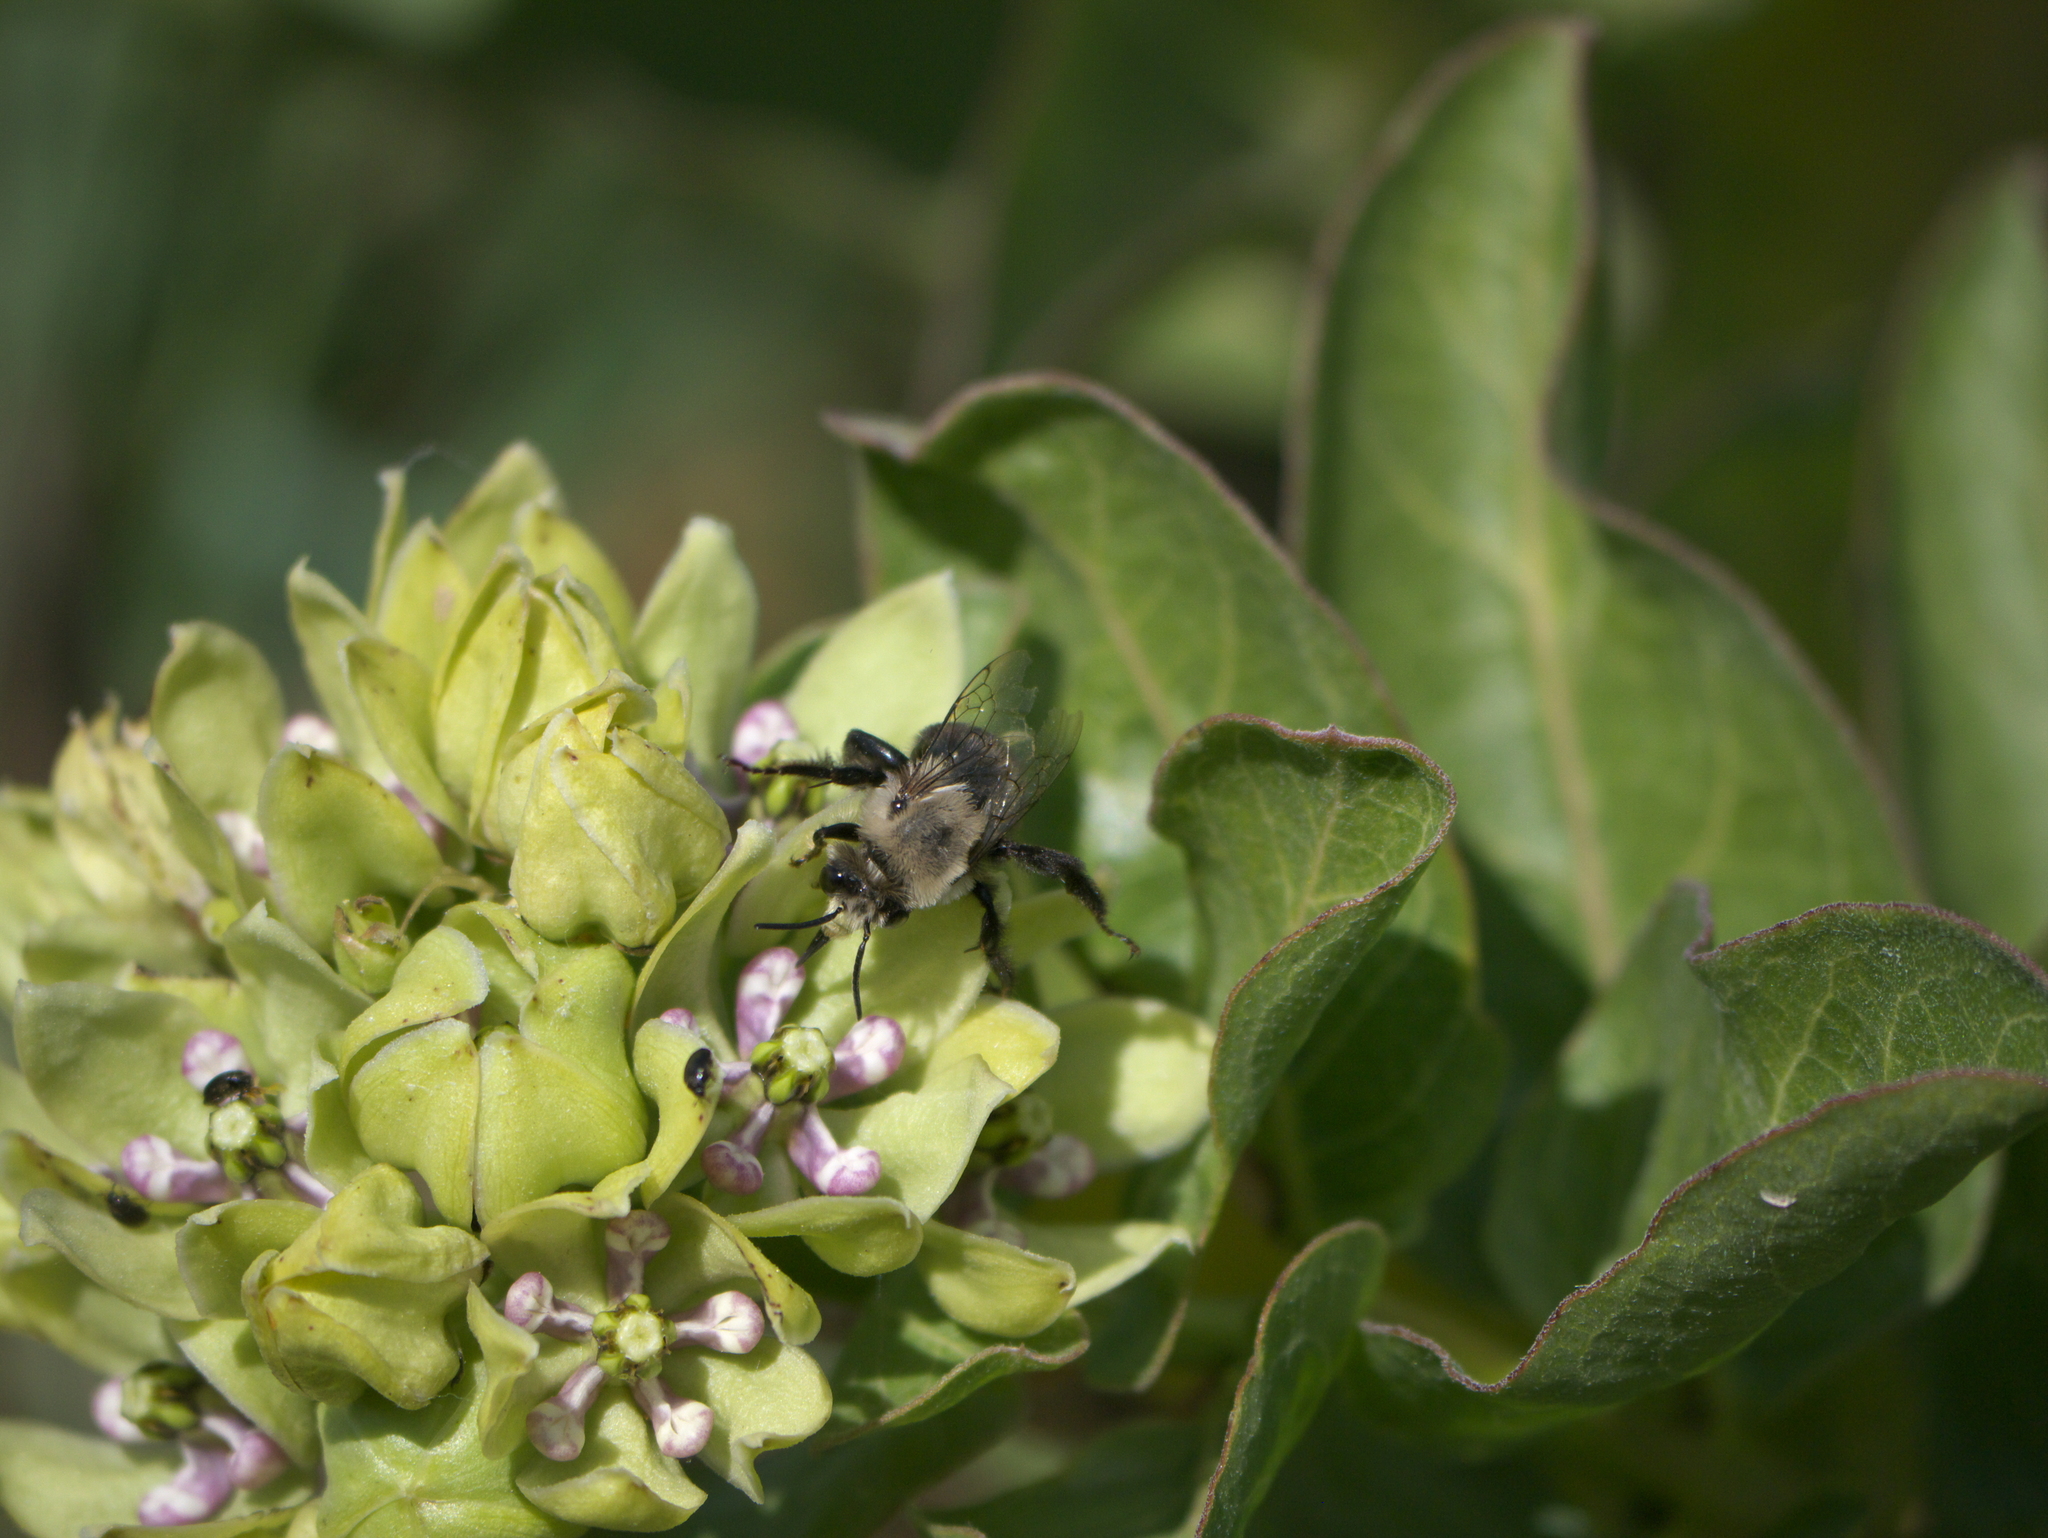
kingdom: Plantae
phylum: Tracheophyta
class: Magnoliopsida
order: Gentianales
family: Apocynaceae
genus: Asclepias
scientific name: Asclepias viridis
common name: Antelope-horns
